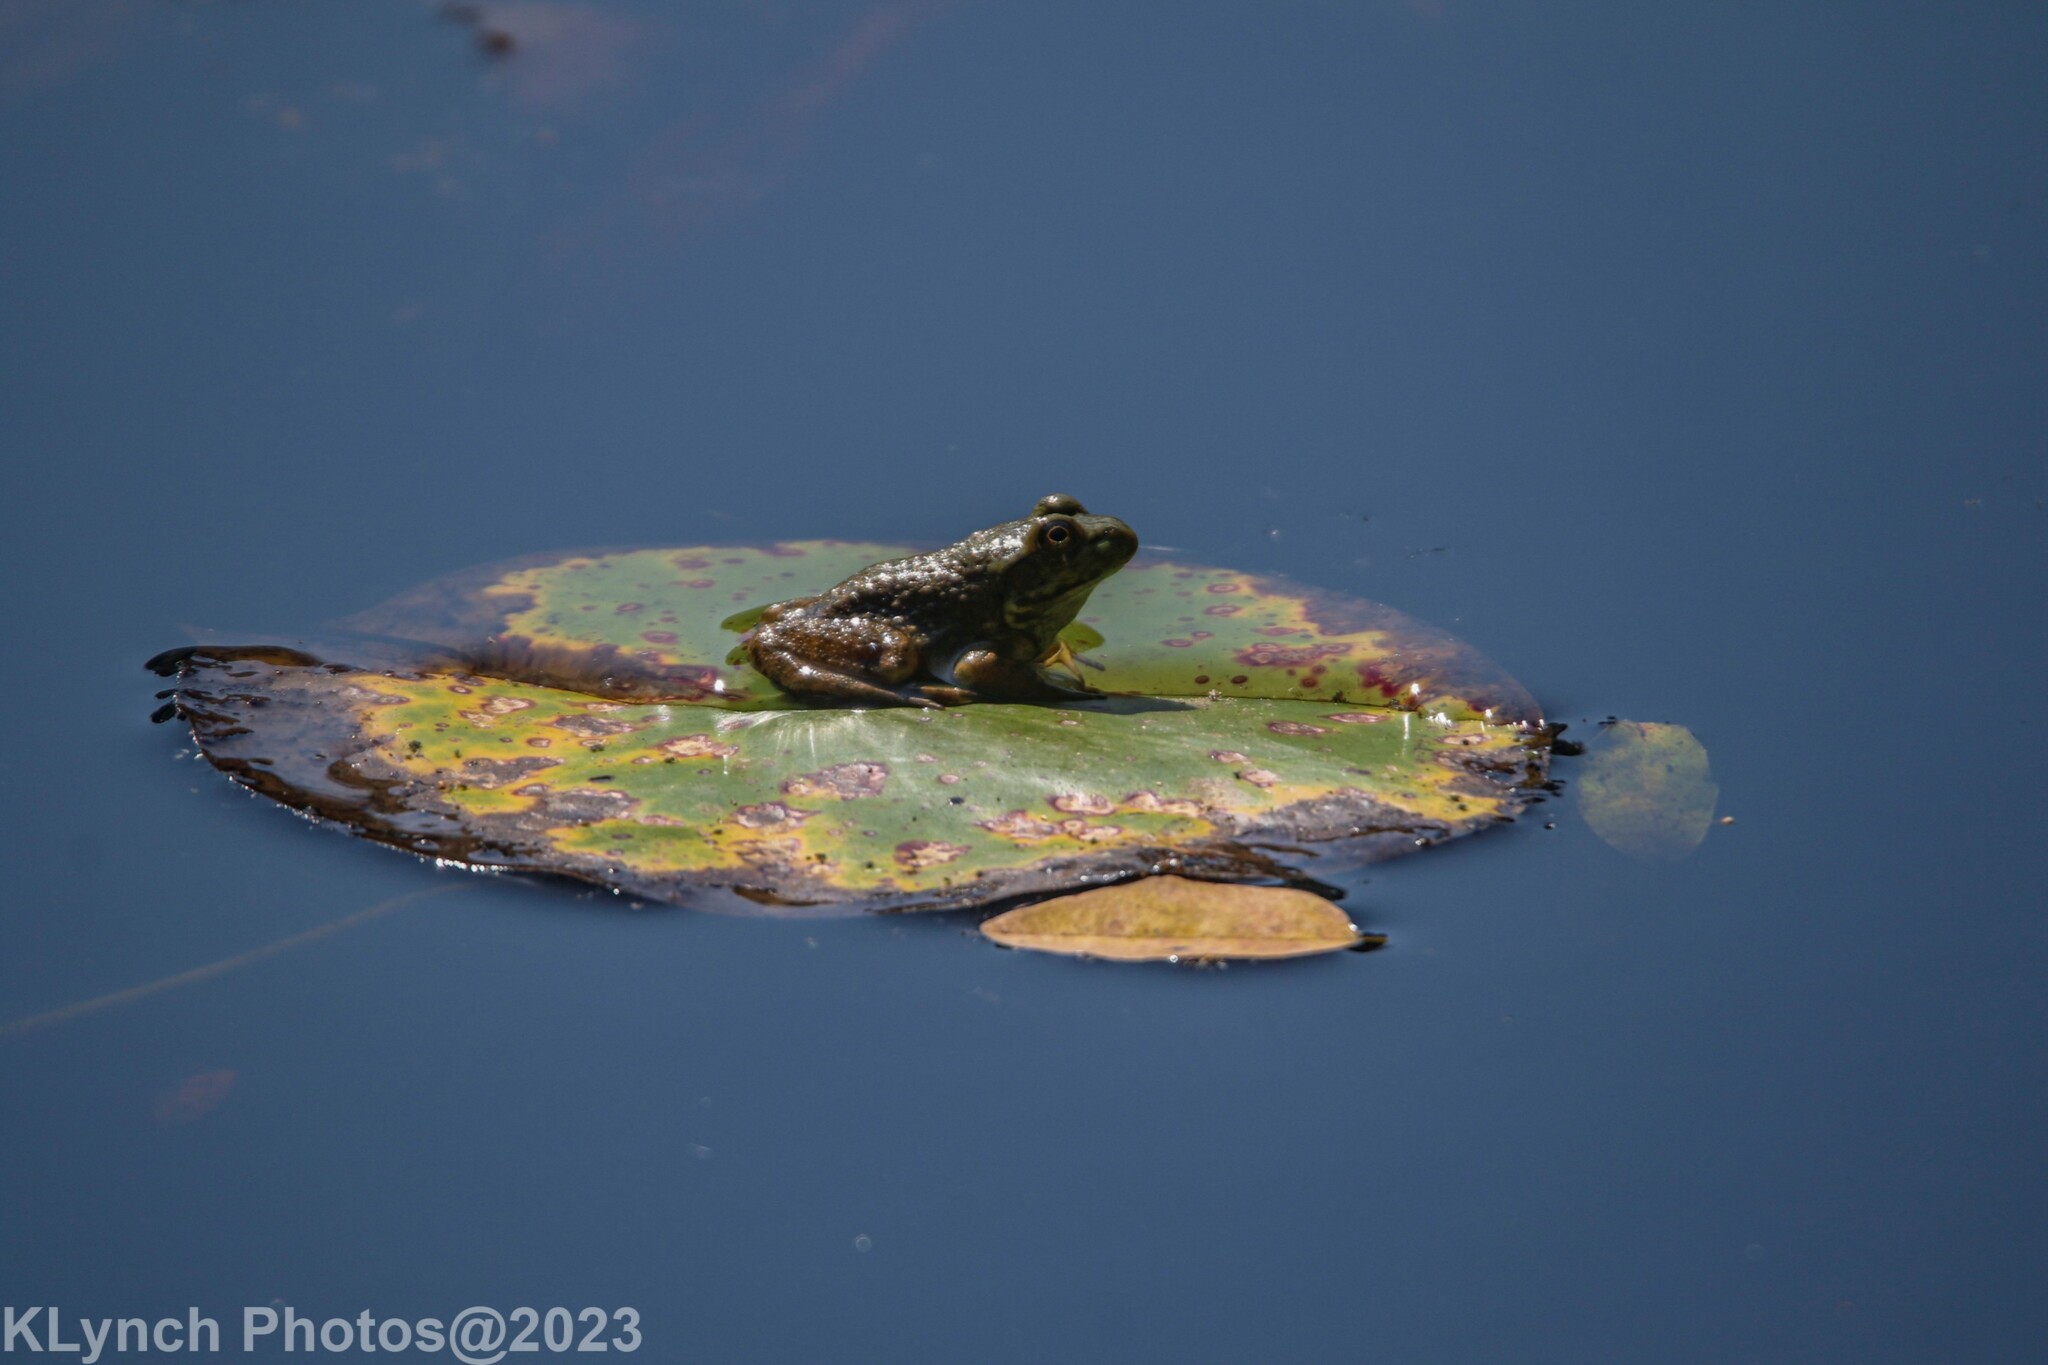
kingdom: Animalia
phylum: Chordata
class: Amphibia
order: Anura
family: Ranidae
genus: Lithobates
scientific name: Lithobates catesbeianus
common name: American bullfrog
